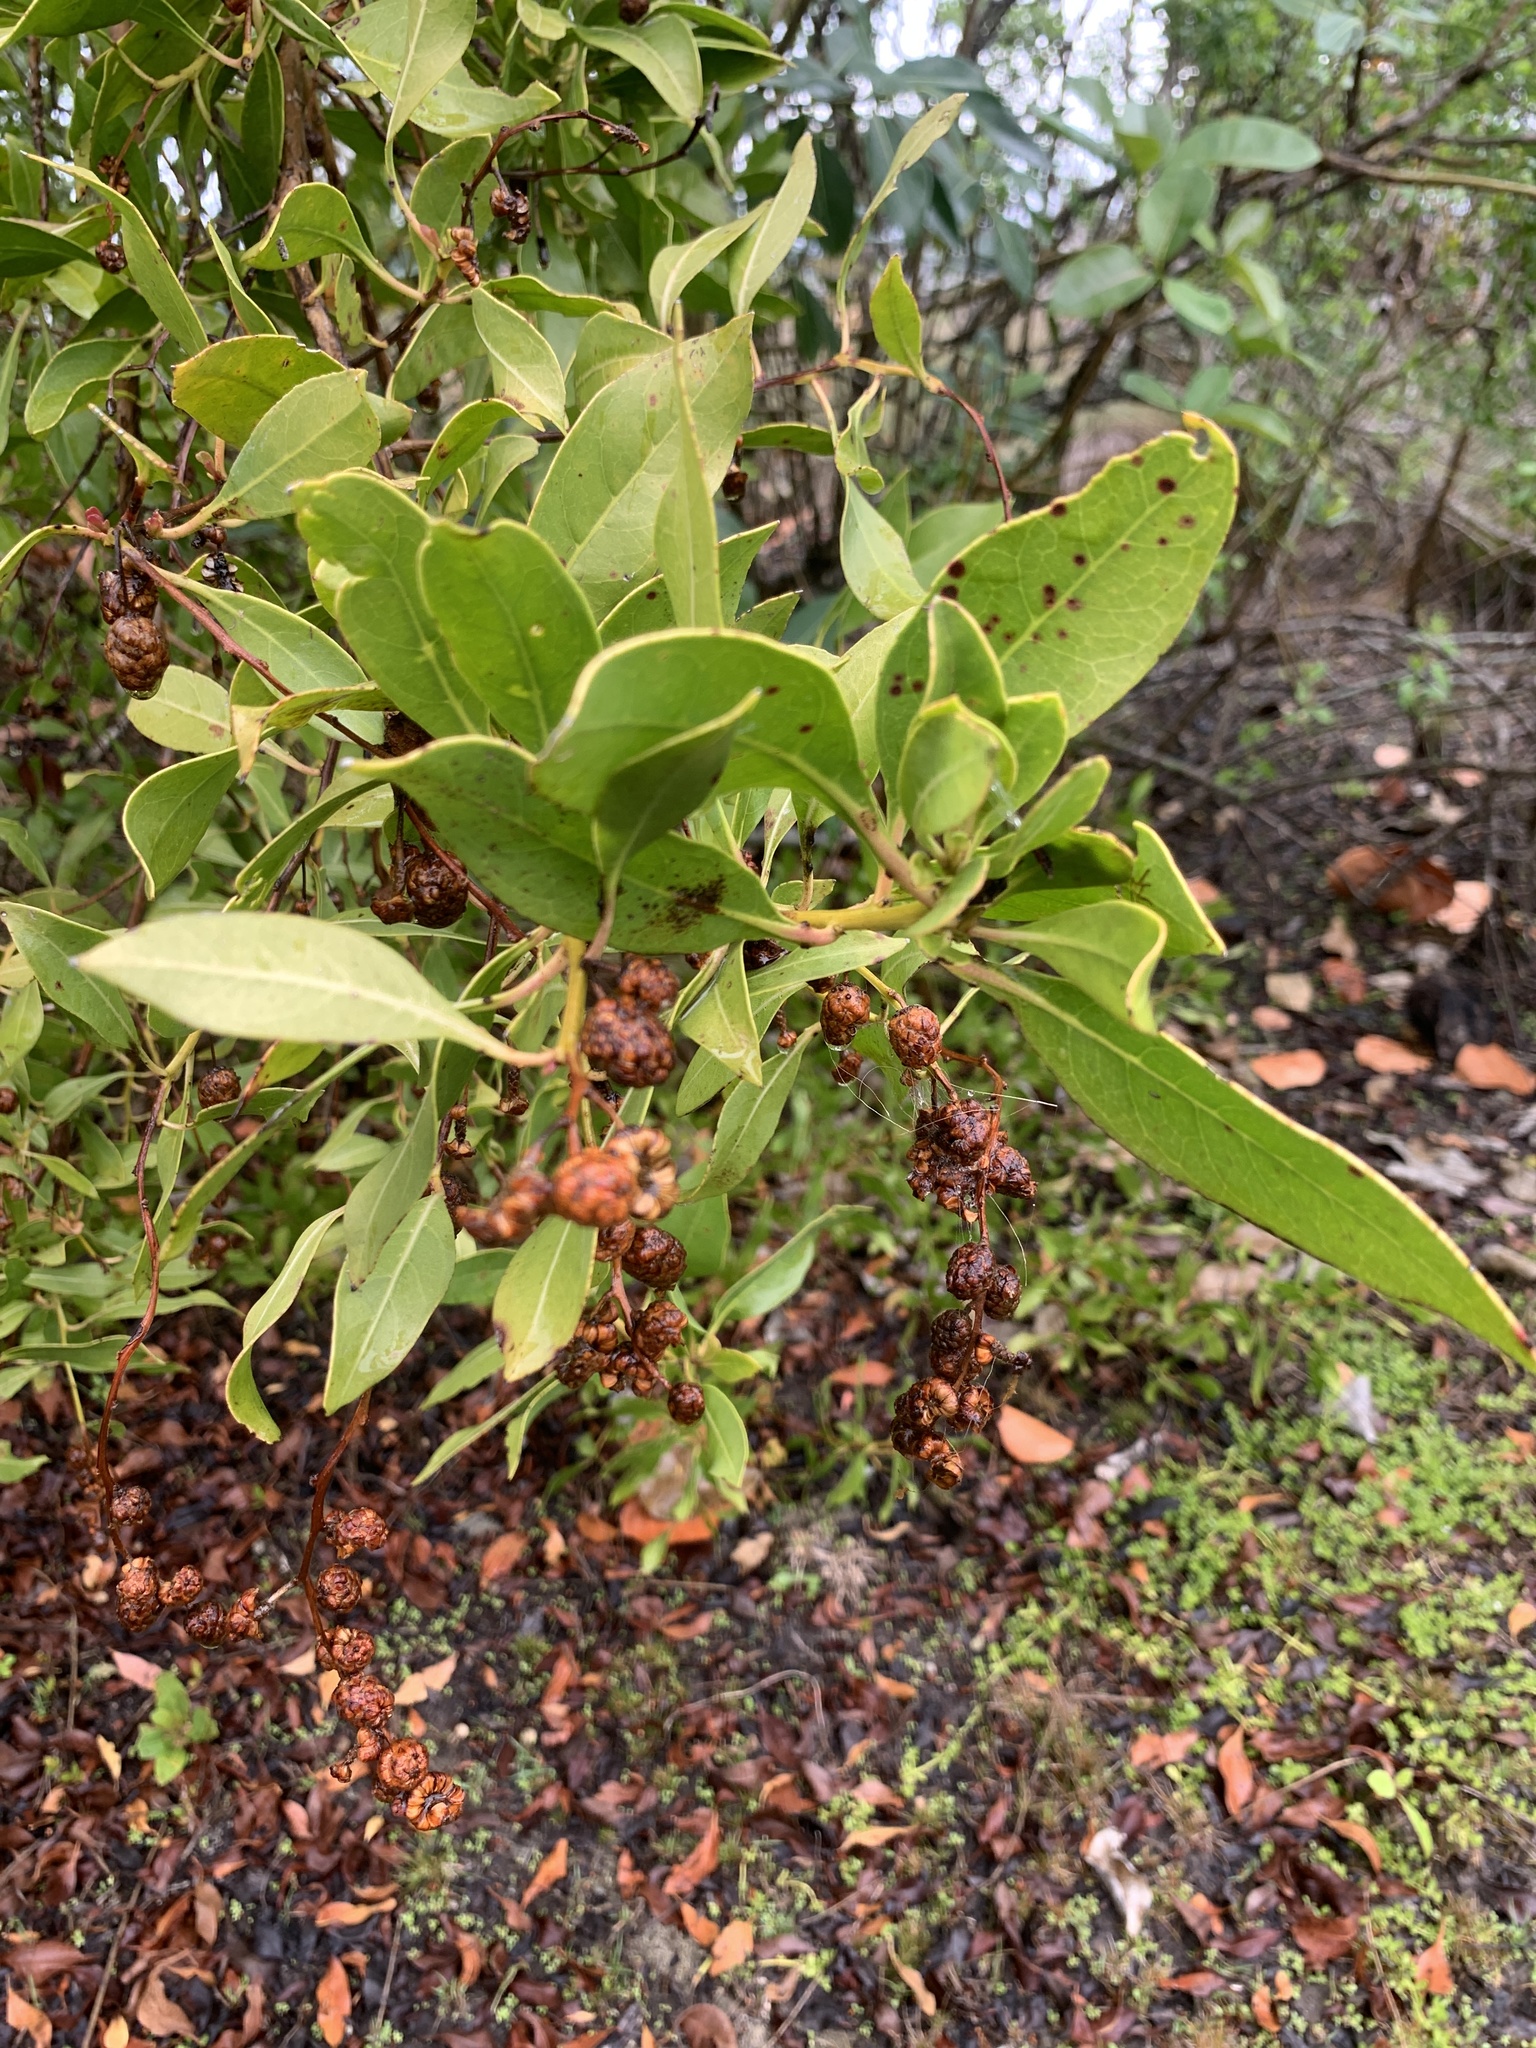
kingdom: Plantae
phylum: Tracheophyta
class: Magnoliopsida
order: Myrtales
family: Combretaceae
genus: Conocarpus
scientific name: Conocarpus erectus
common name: Button mangrove
